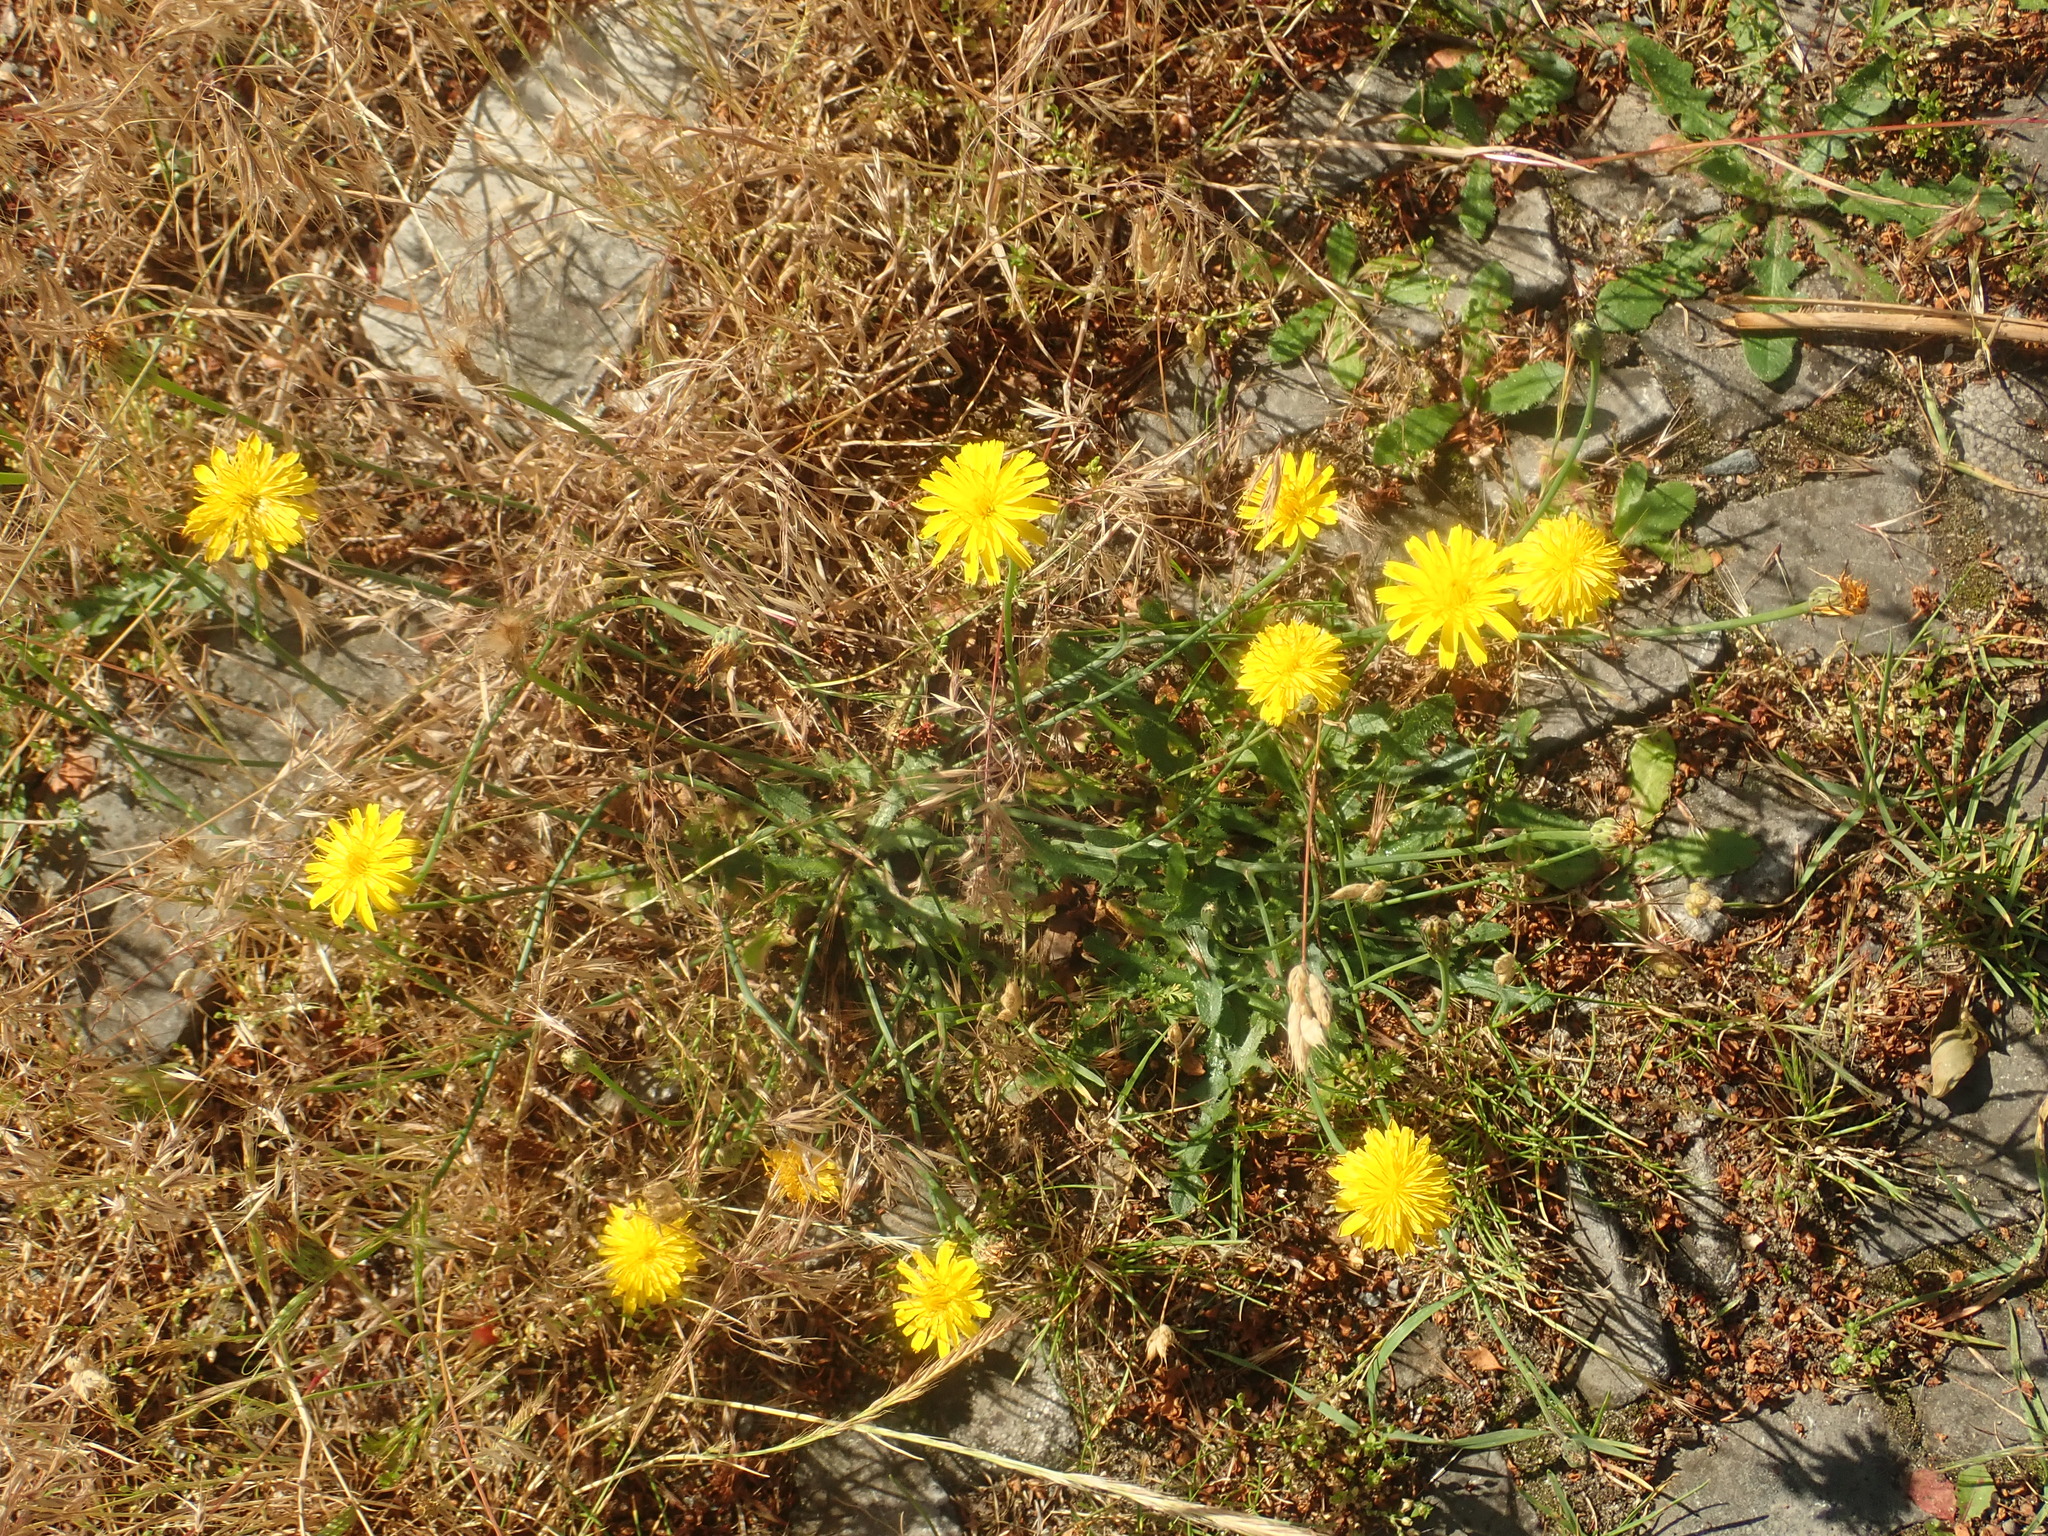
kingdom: Plantae
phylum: Tracheophyta
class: Magnoliopsida
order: Asterales
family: Asteraceae
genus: Hypochaeris
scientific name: Hypochaeris radicata
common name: Flatweed
